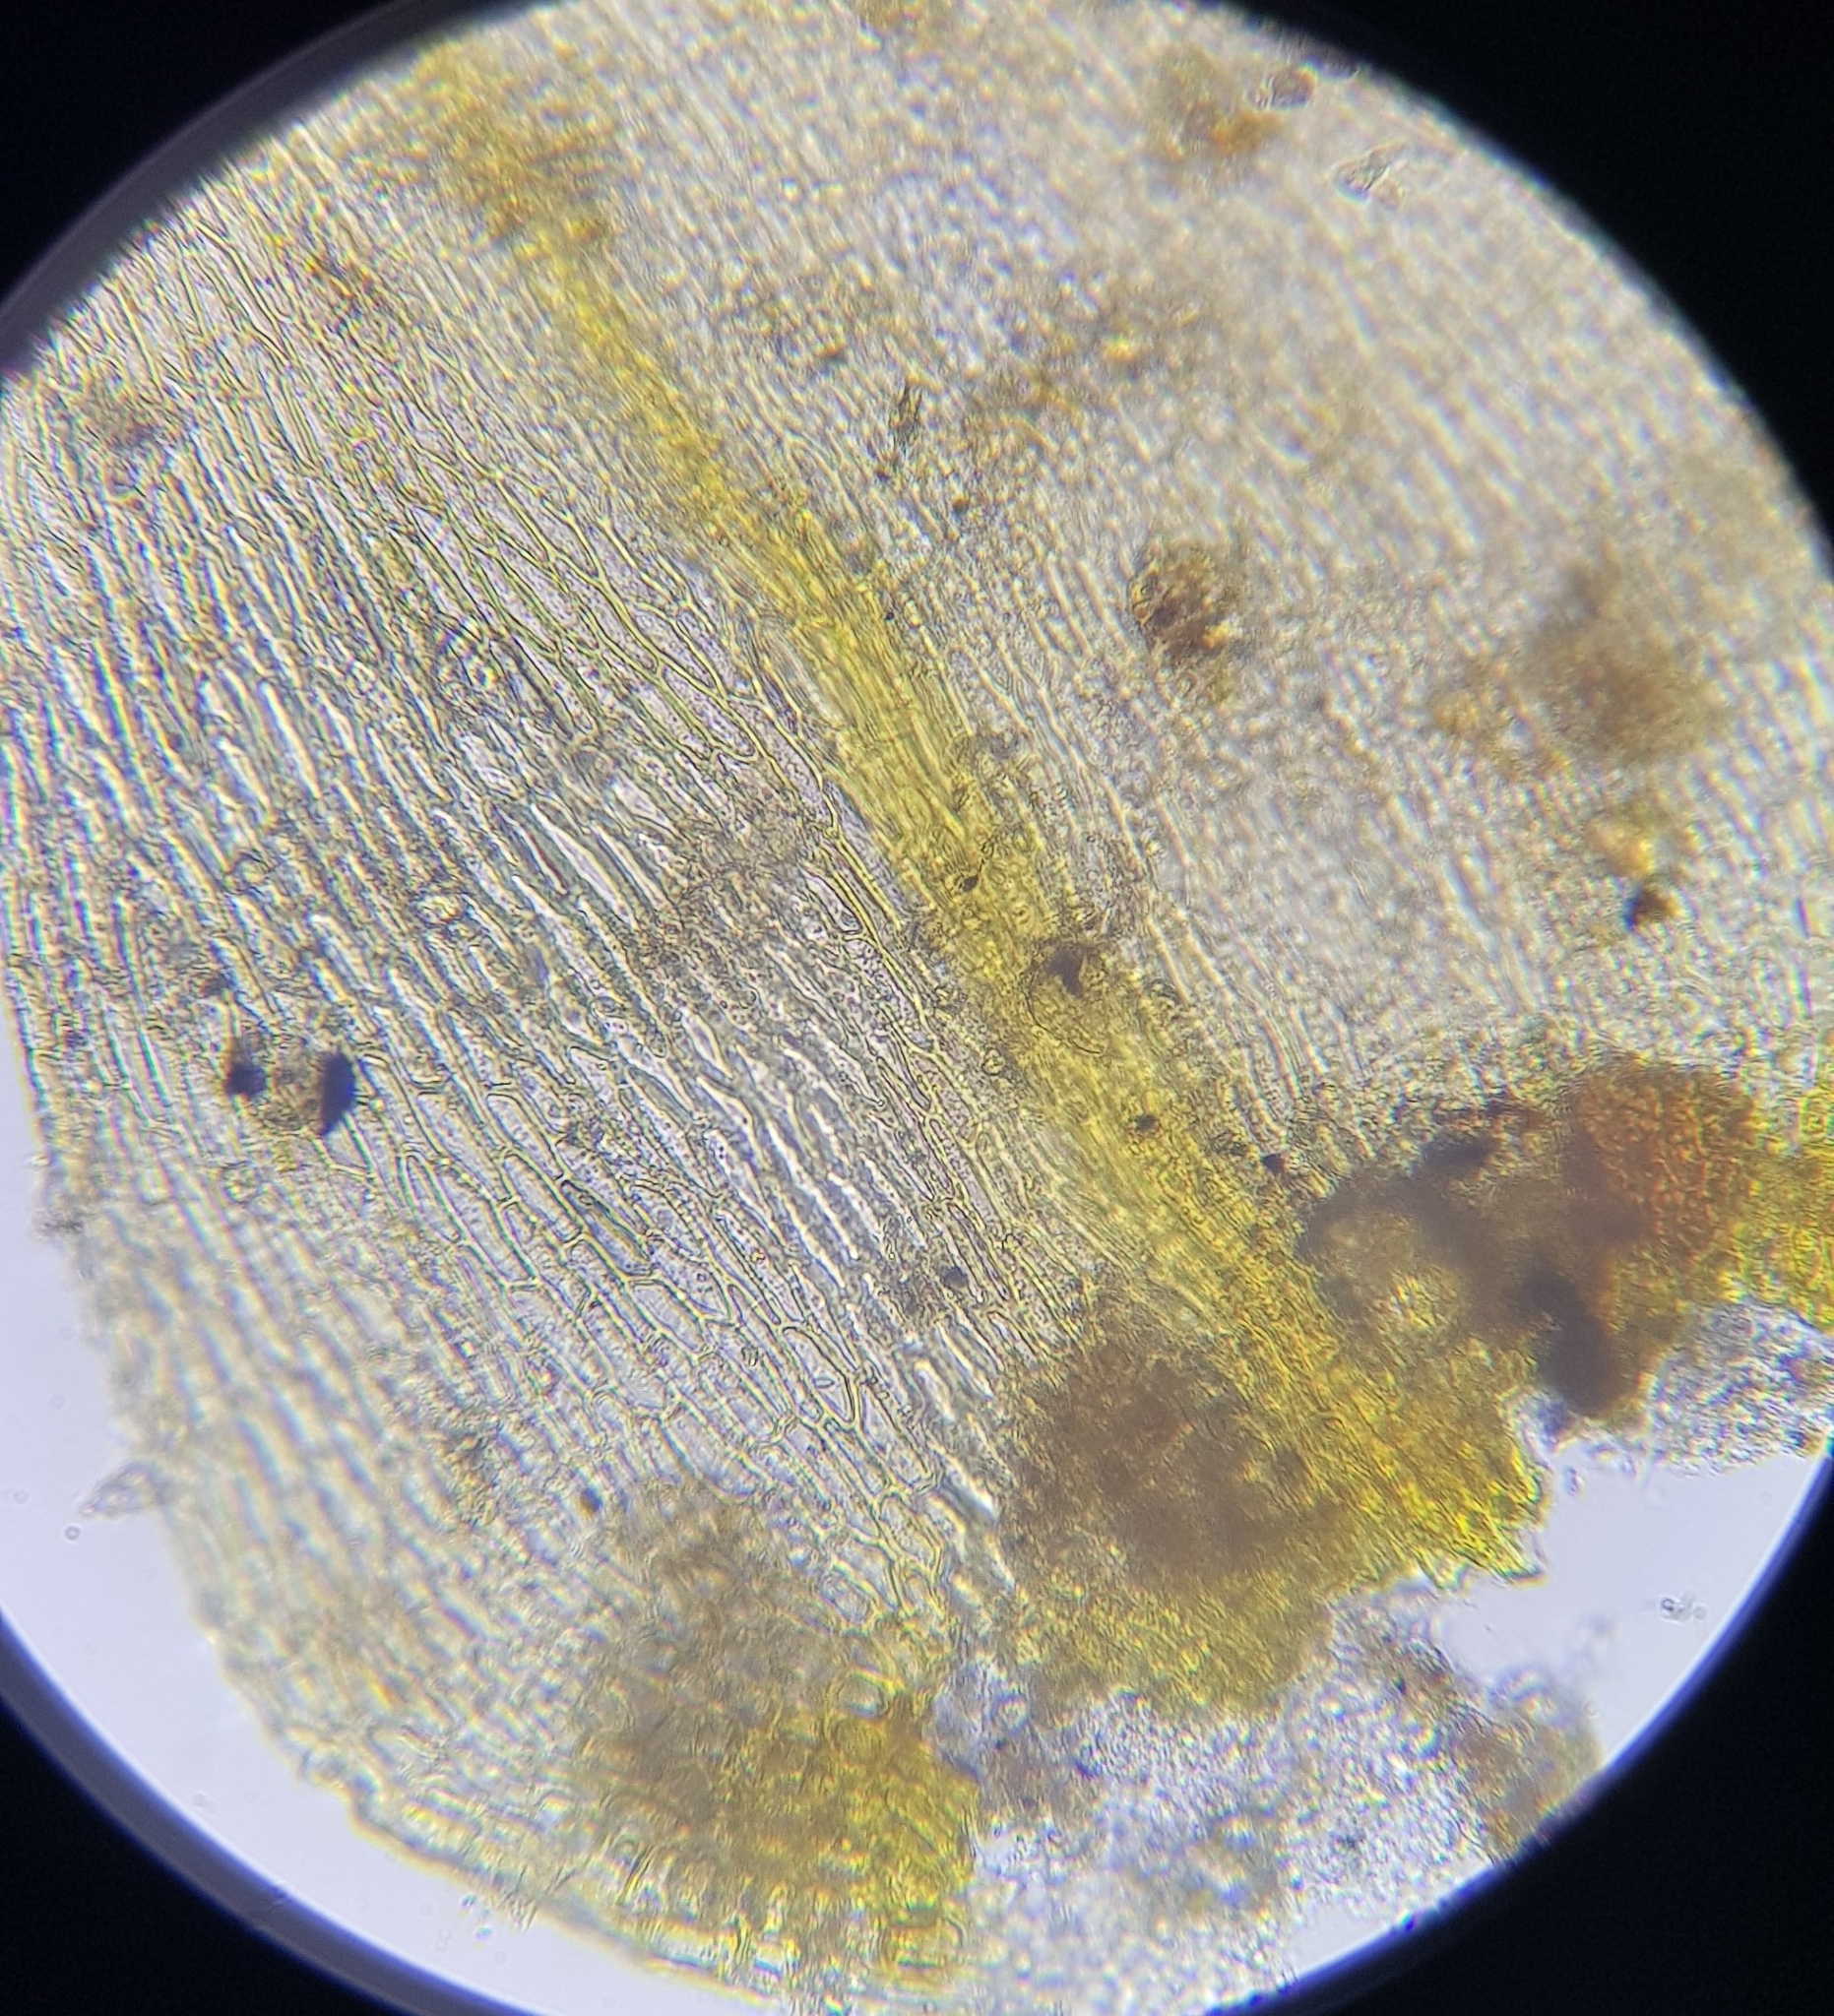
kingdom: Plantae
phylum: Bryophyta
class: Bryopsida
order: Hypnales
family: Amblystegiaceae
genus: Campylium
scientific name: Campylium chrysophyllum
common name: Goldenleaf campylium moss
